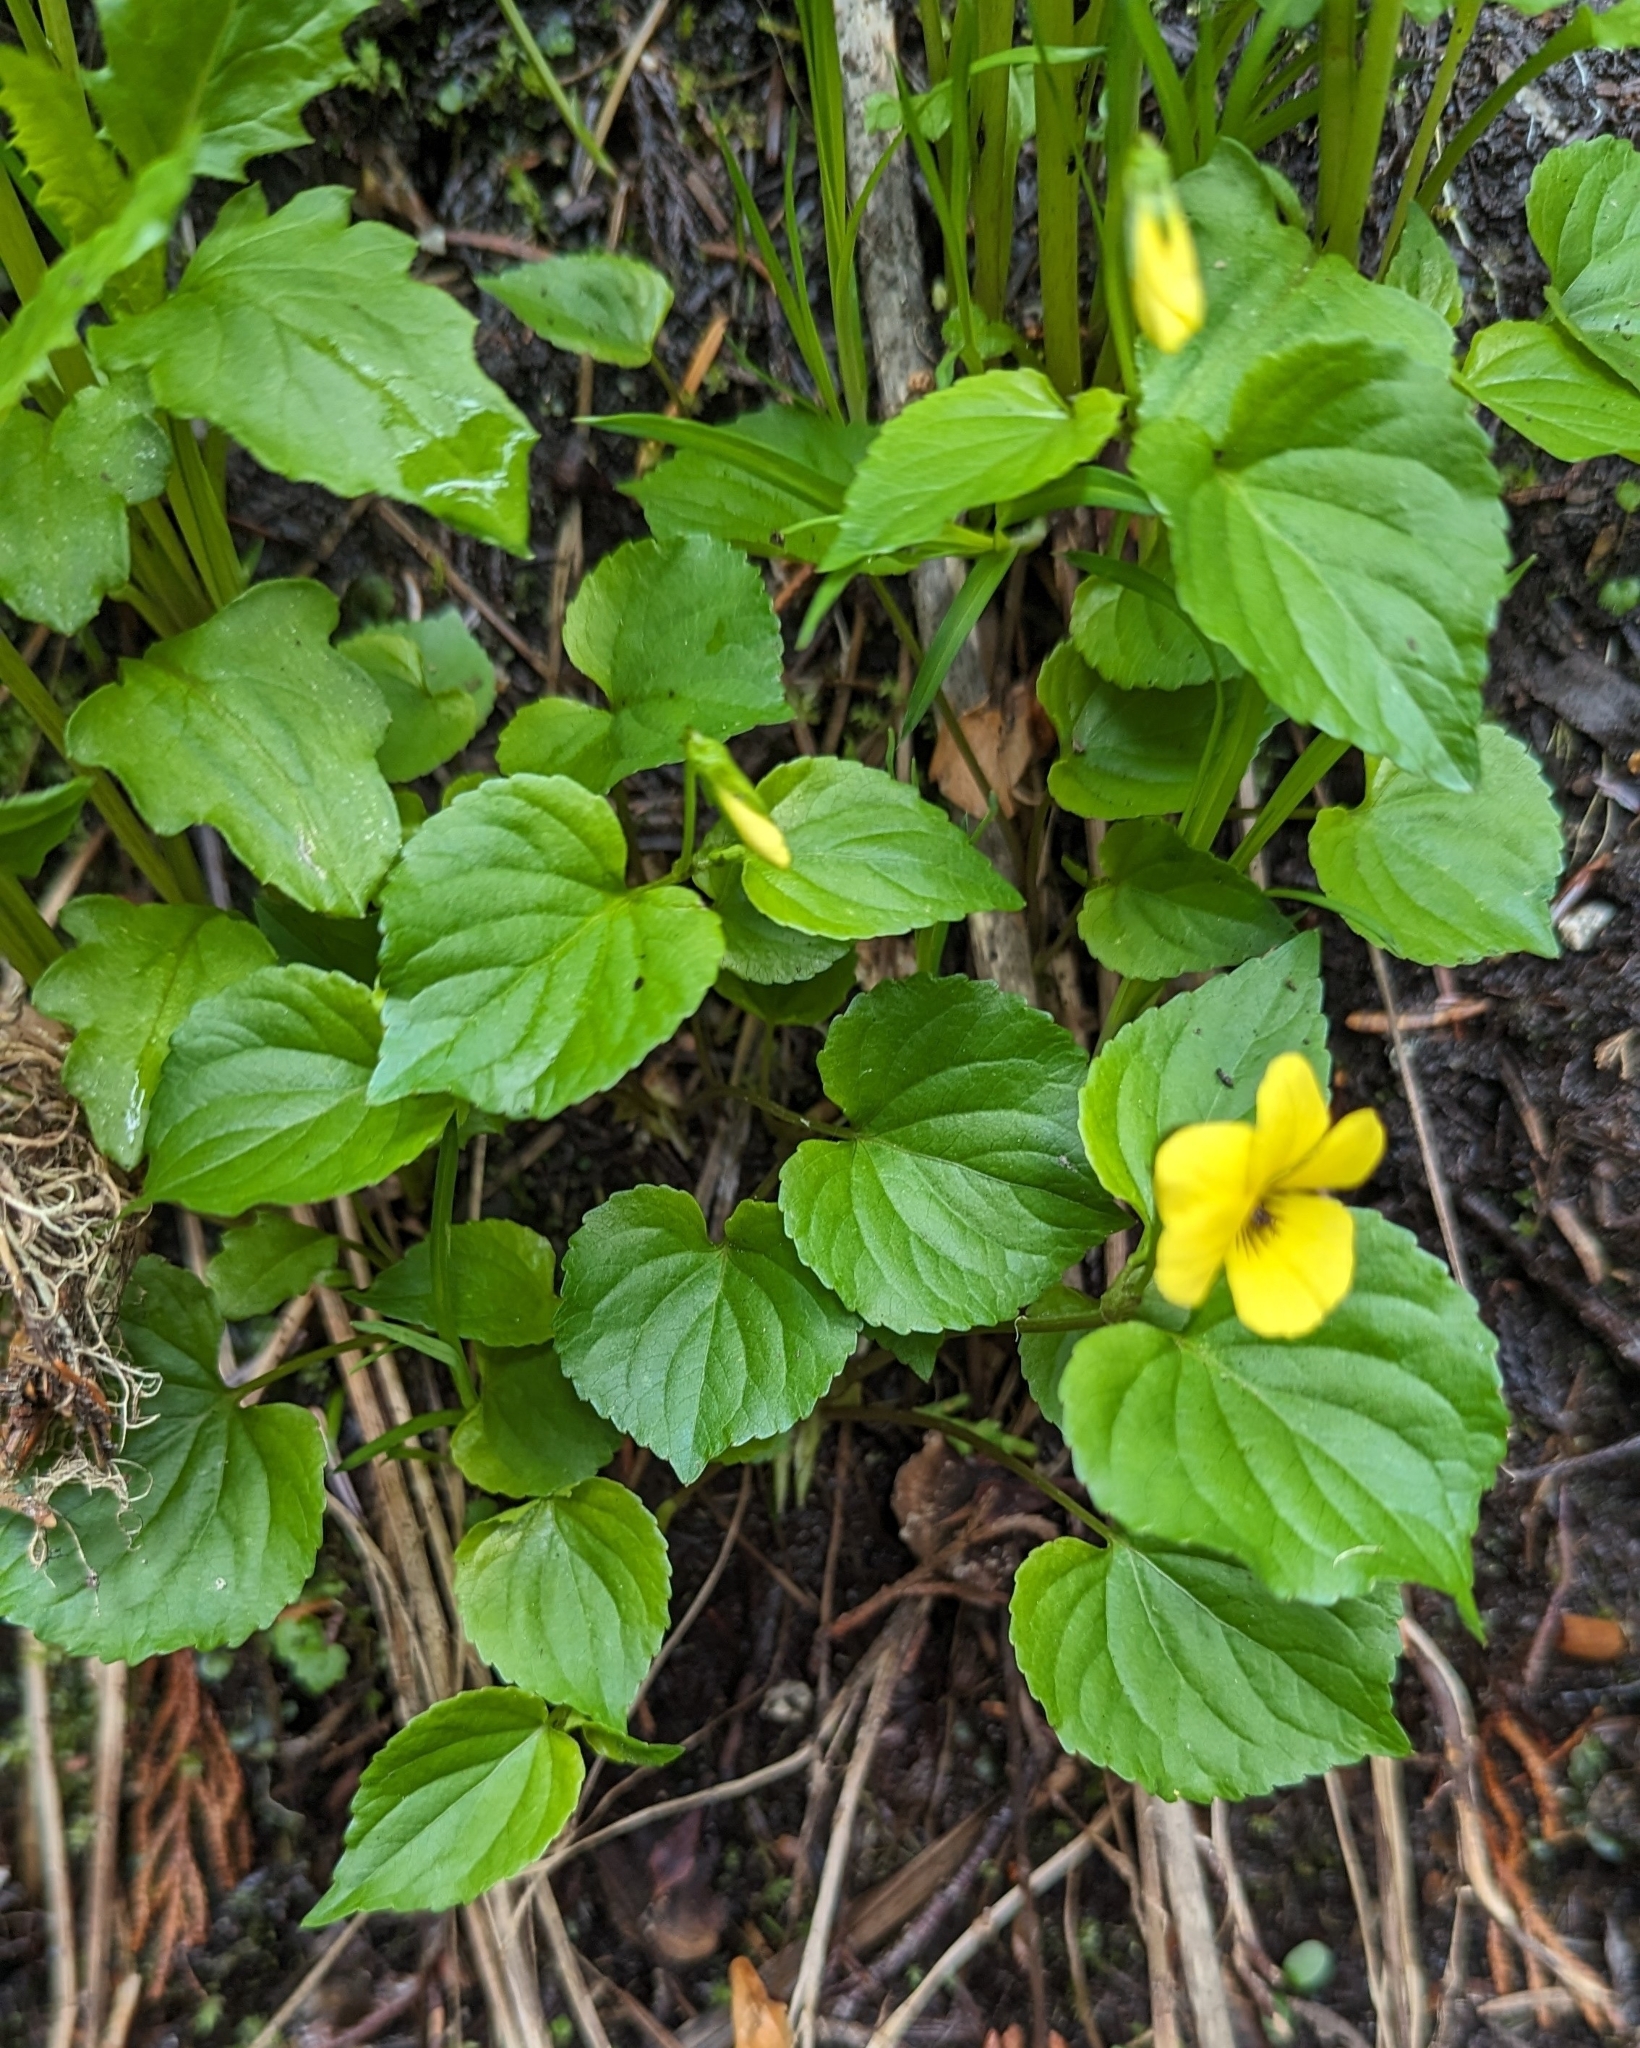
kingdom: Plantae
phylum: Tracheophyta
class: Magnoliopsida
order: Malpighiales
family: Violaceae
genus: Viola
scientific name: Viola glabella
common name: Stream violet
